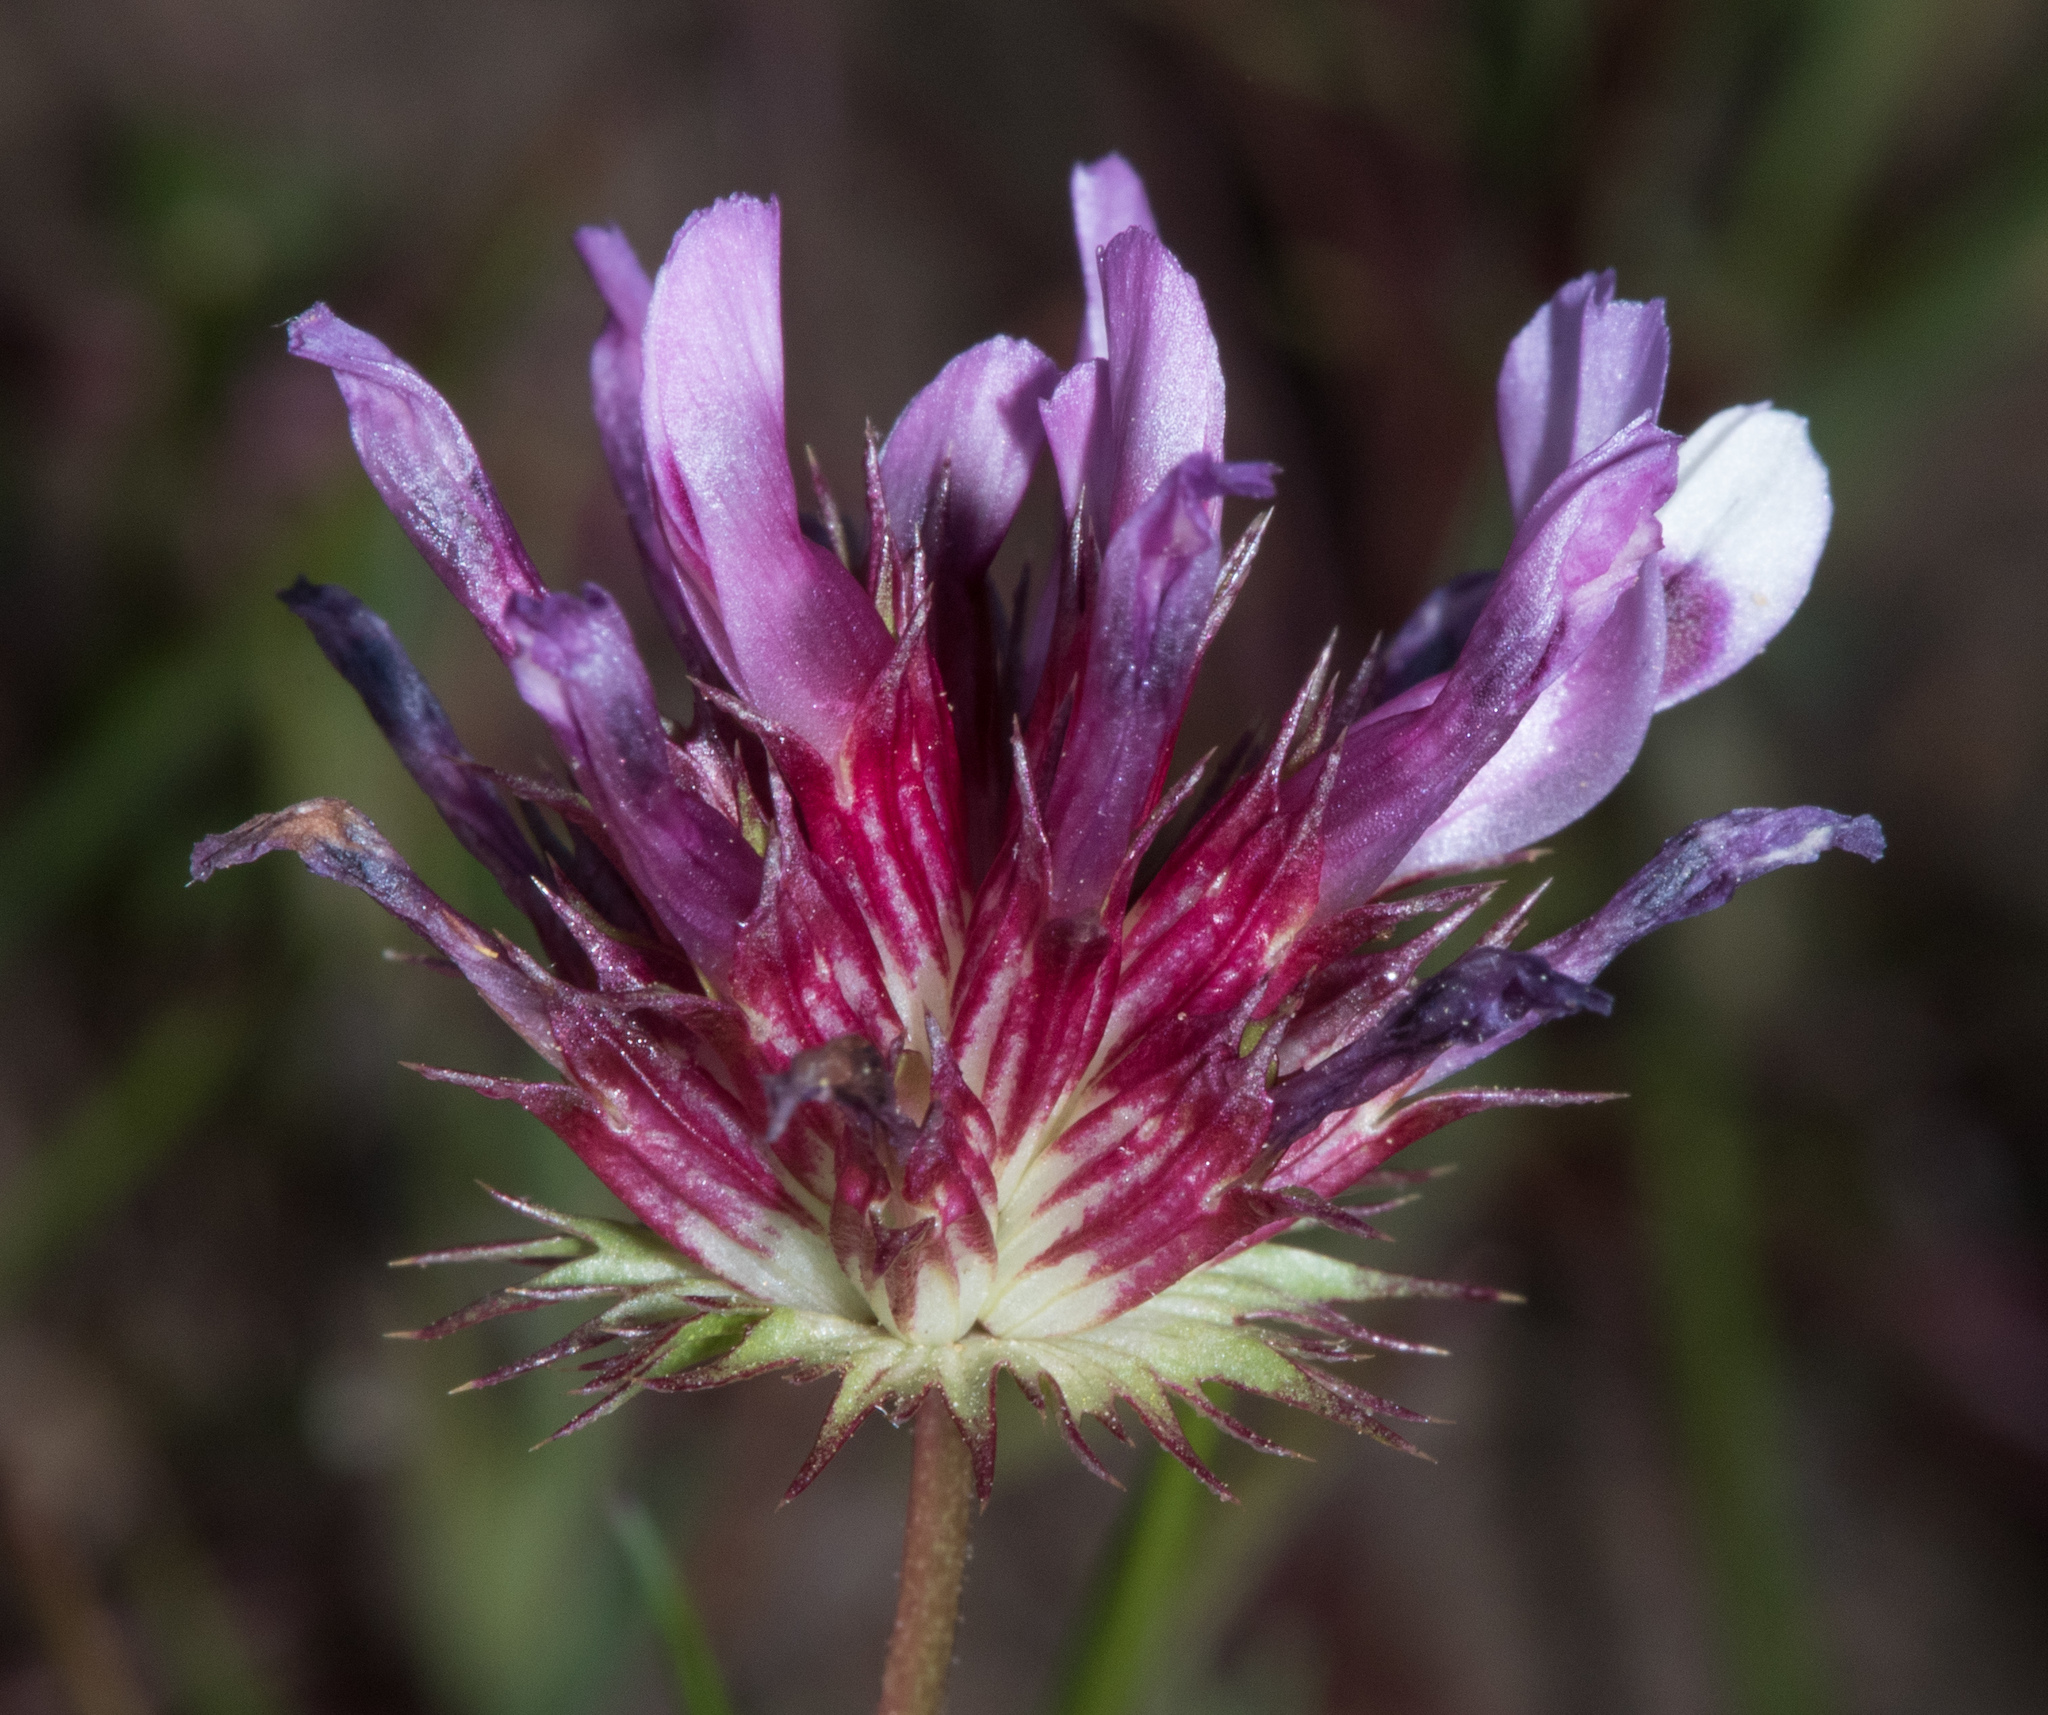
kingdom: Plantae
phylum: Tracheophyta
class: Magnoliopsida
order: Fabales
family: Fabaceae
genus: Trifolium
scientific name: Trifolium willdenovii
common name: Tomcat clover
